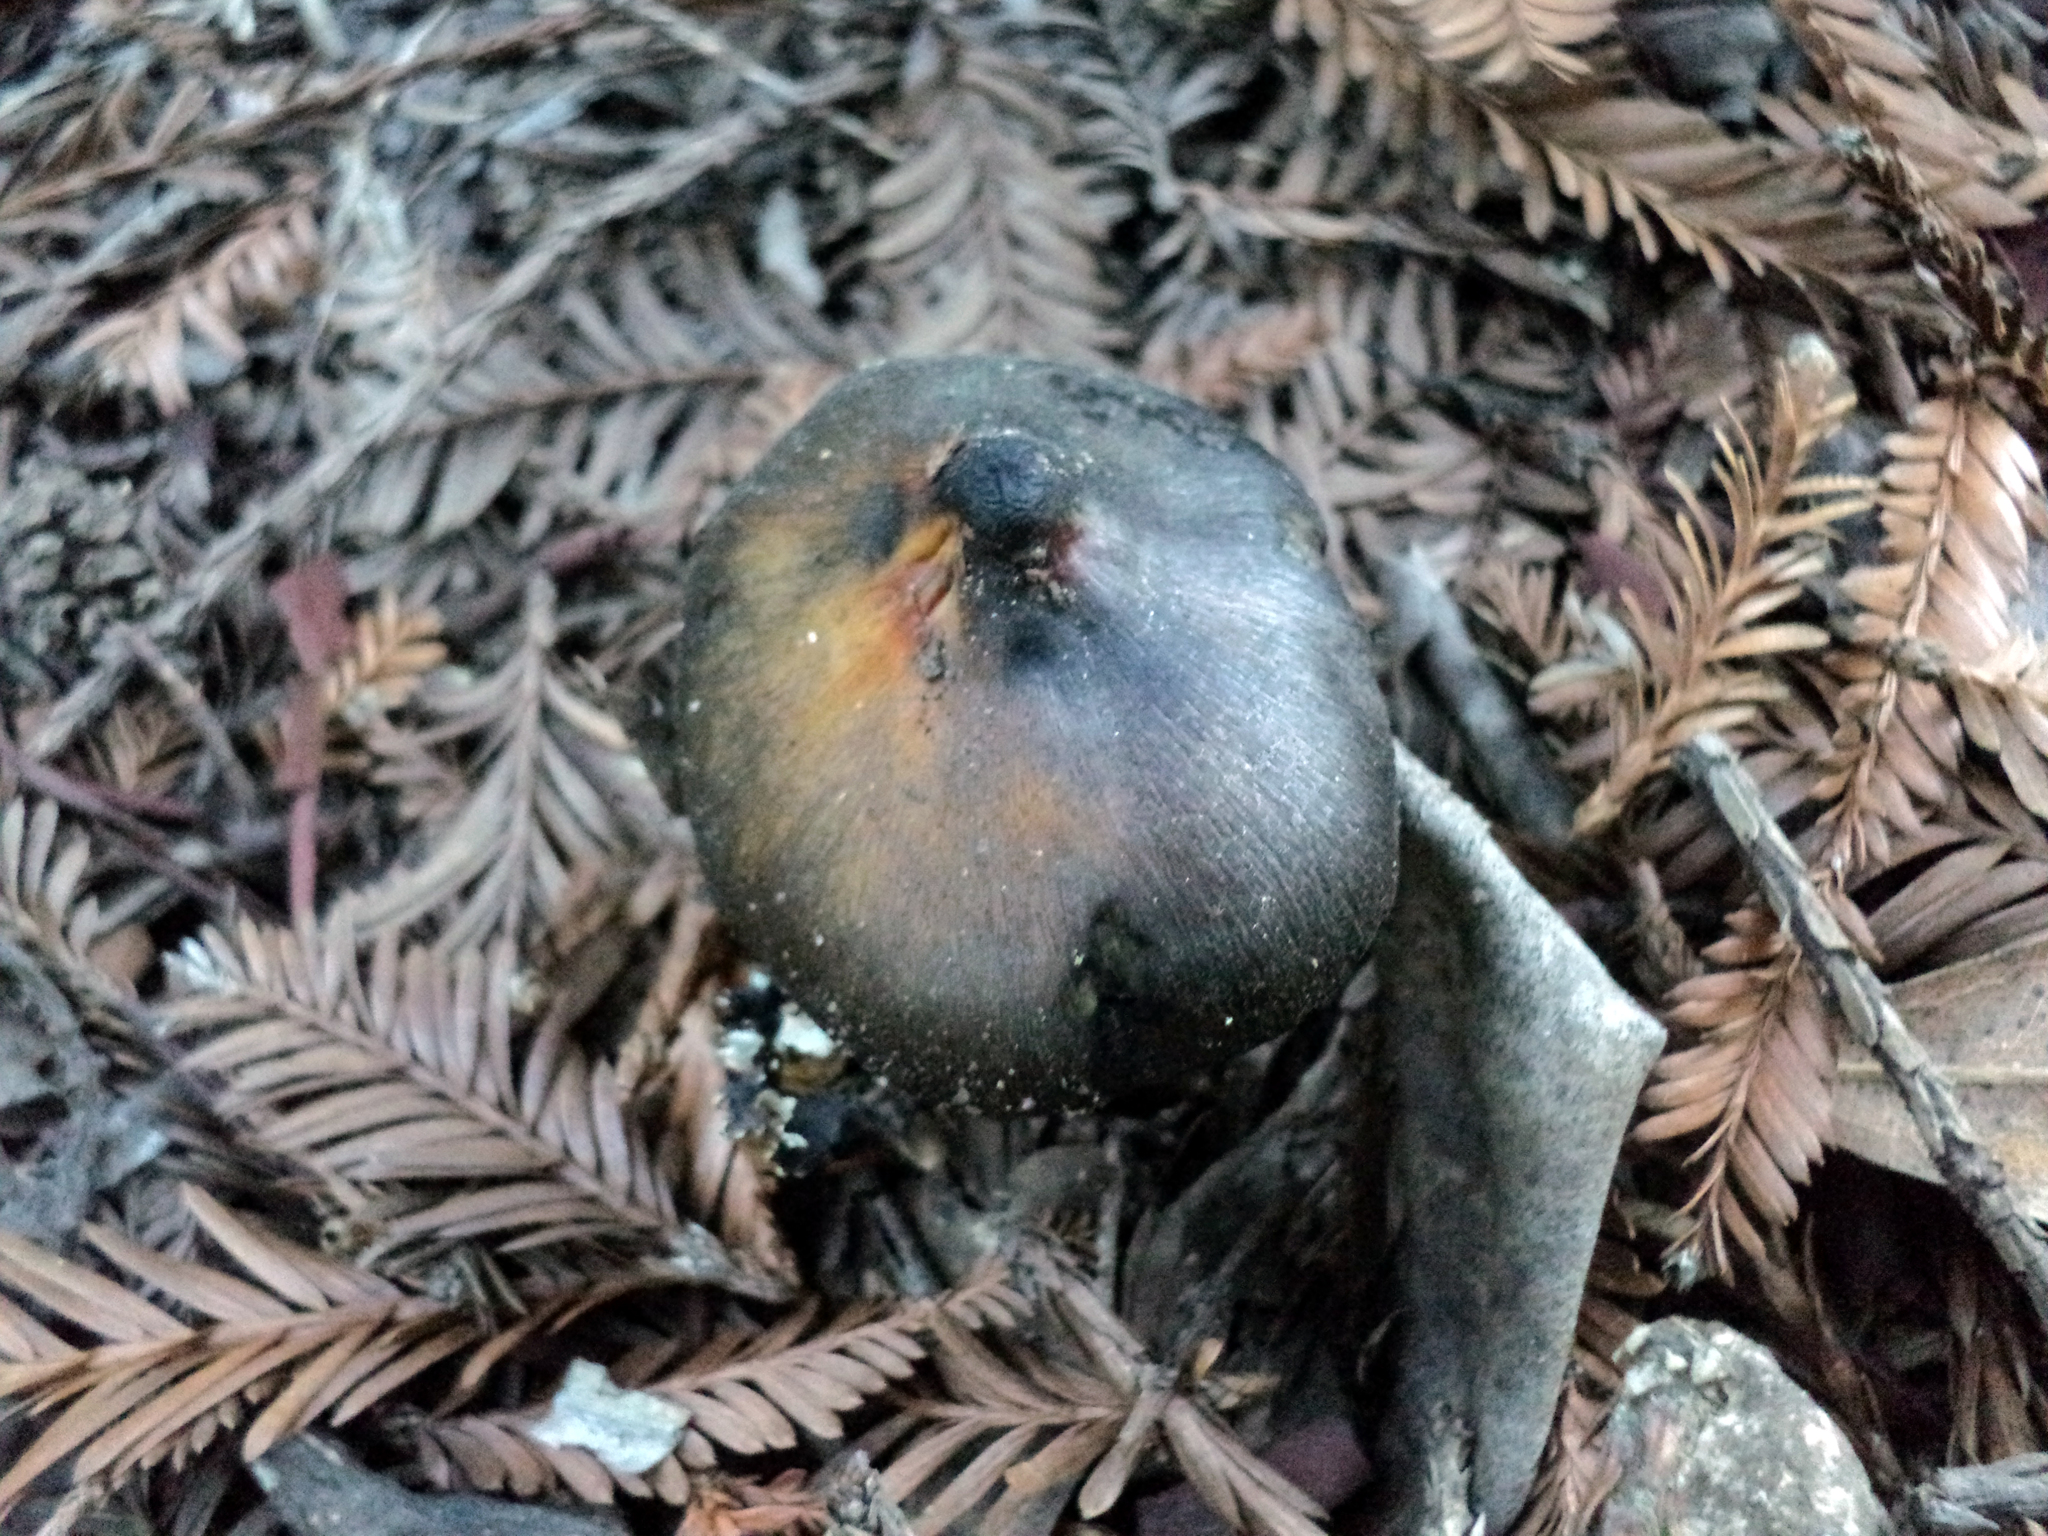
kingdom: Fungi
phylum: Basidiomycota
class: Agaricomycetes
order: Agaricales
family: Hygrophoraceae
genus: Hygrocybe
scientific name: Hygrocybe singeri
